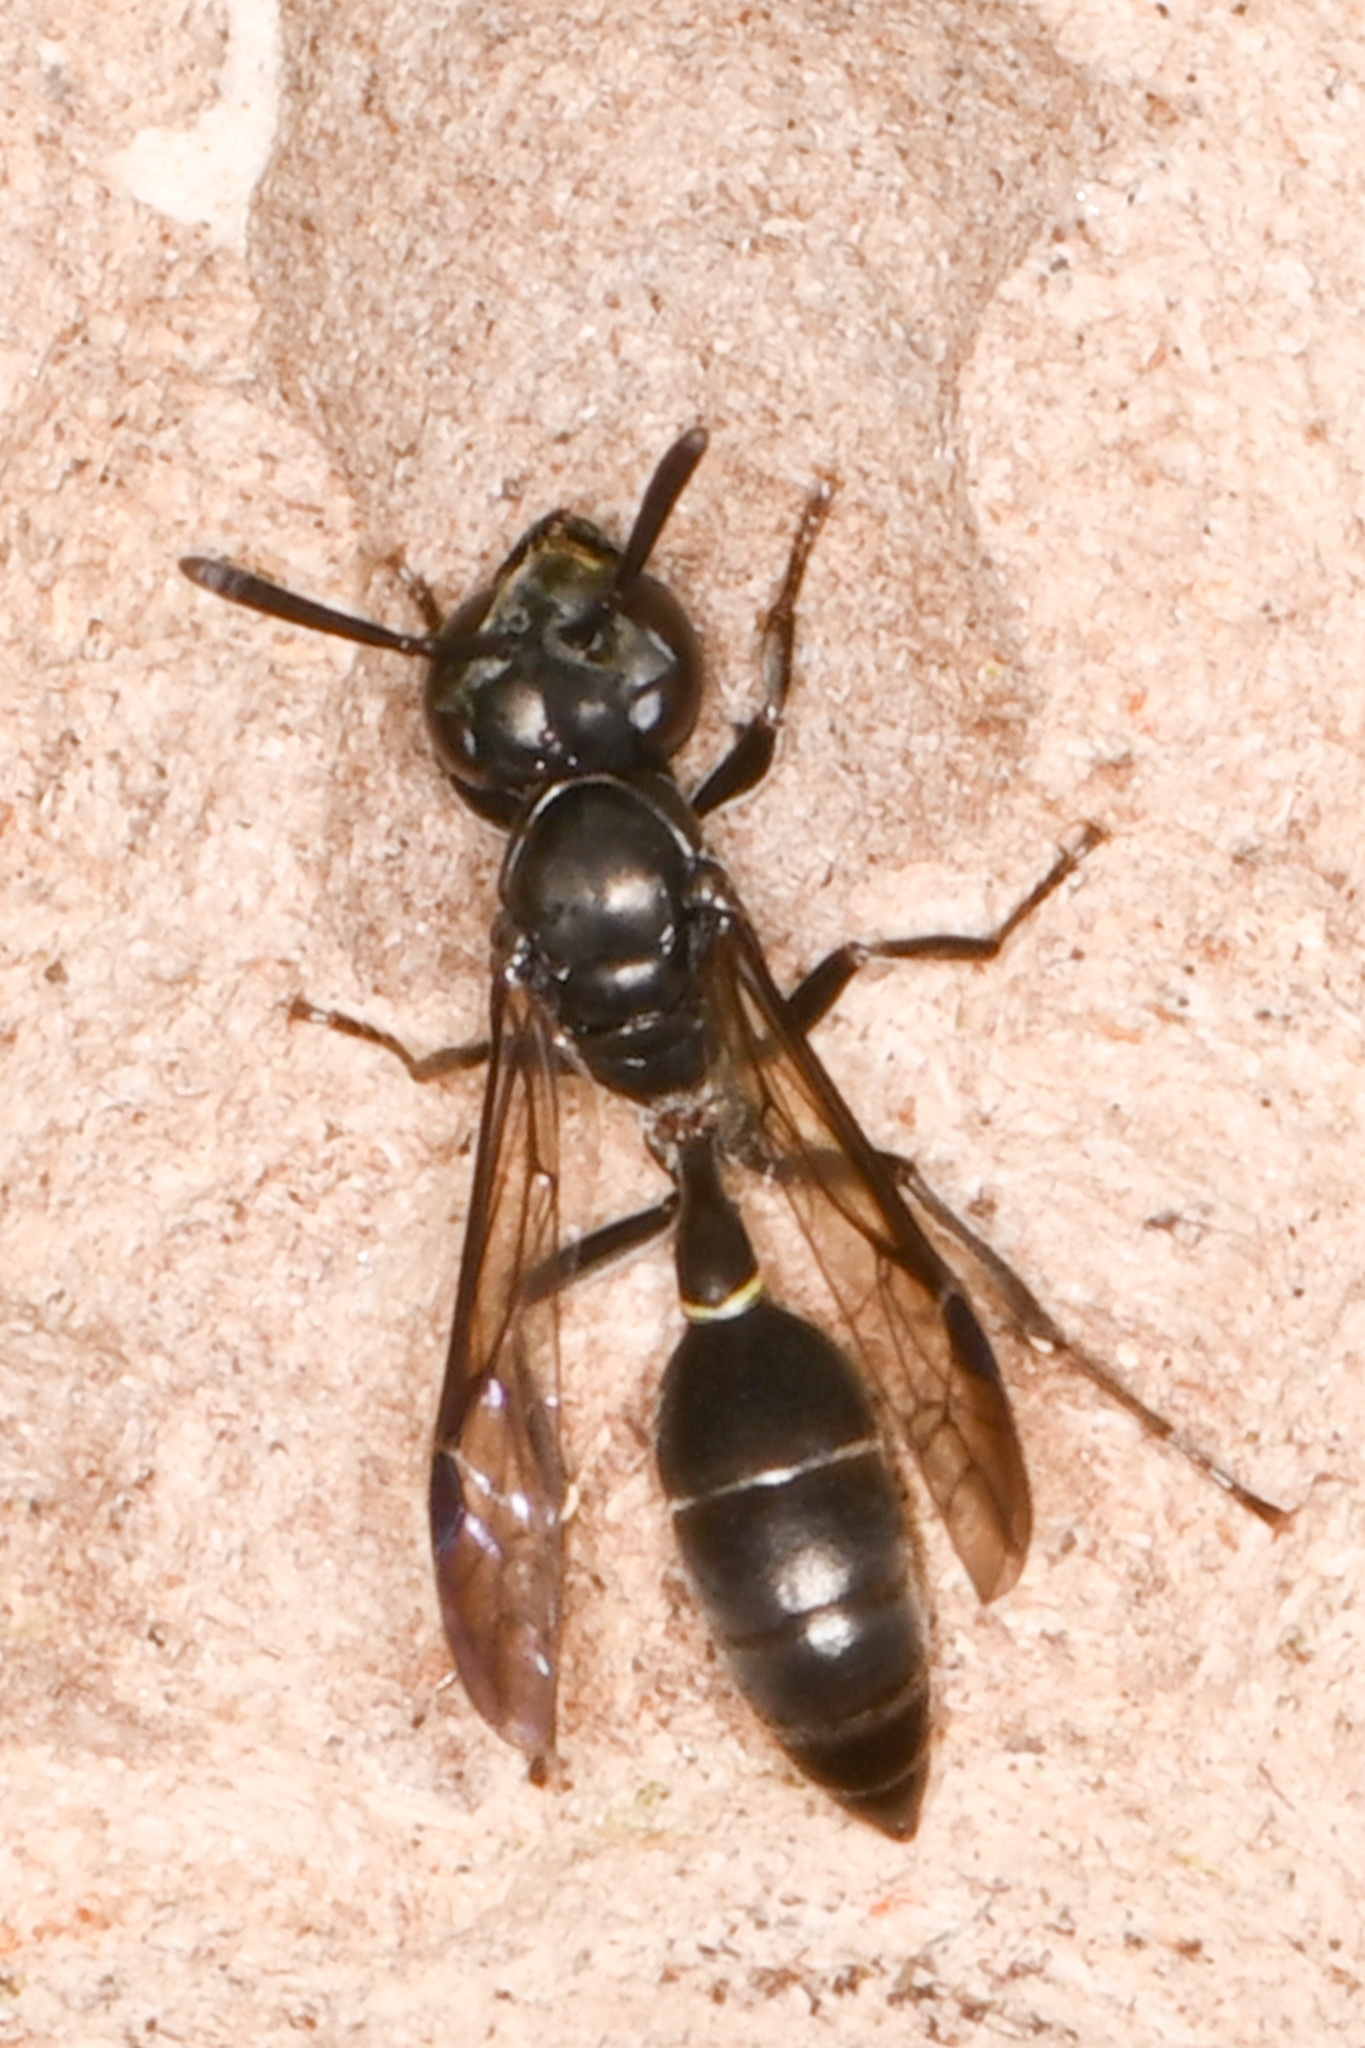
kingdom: Animalia
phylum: Arthropoda
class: Insecta
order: Hymenoptera
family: Eumenidae
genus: Polybia
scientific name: Polybia aequatorialis
